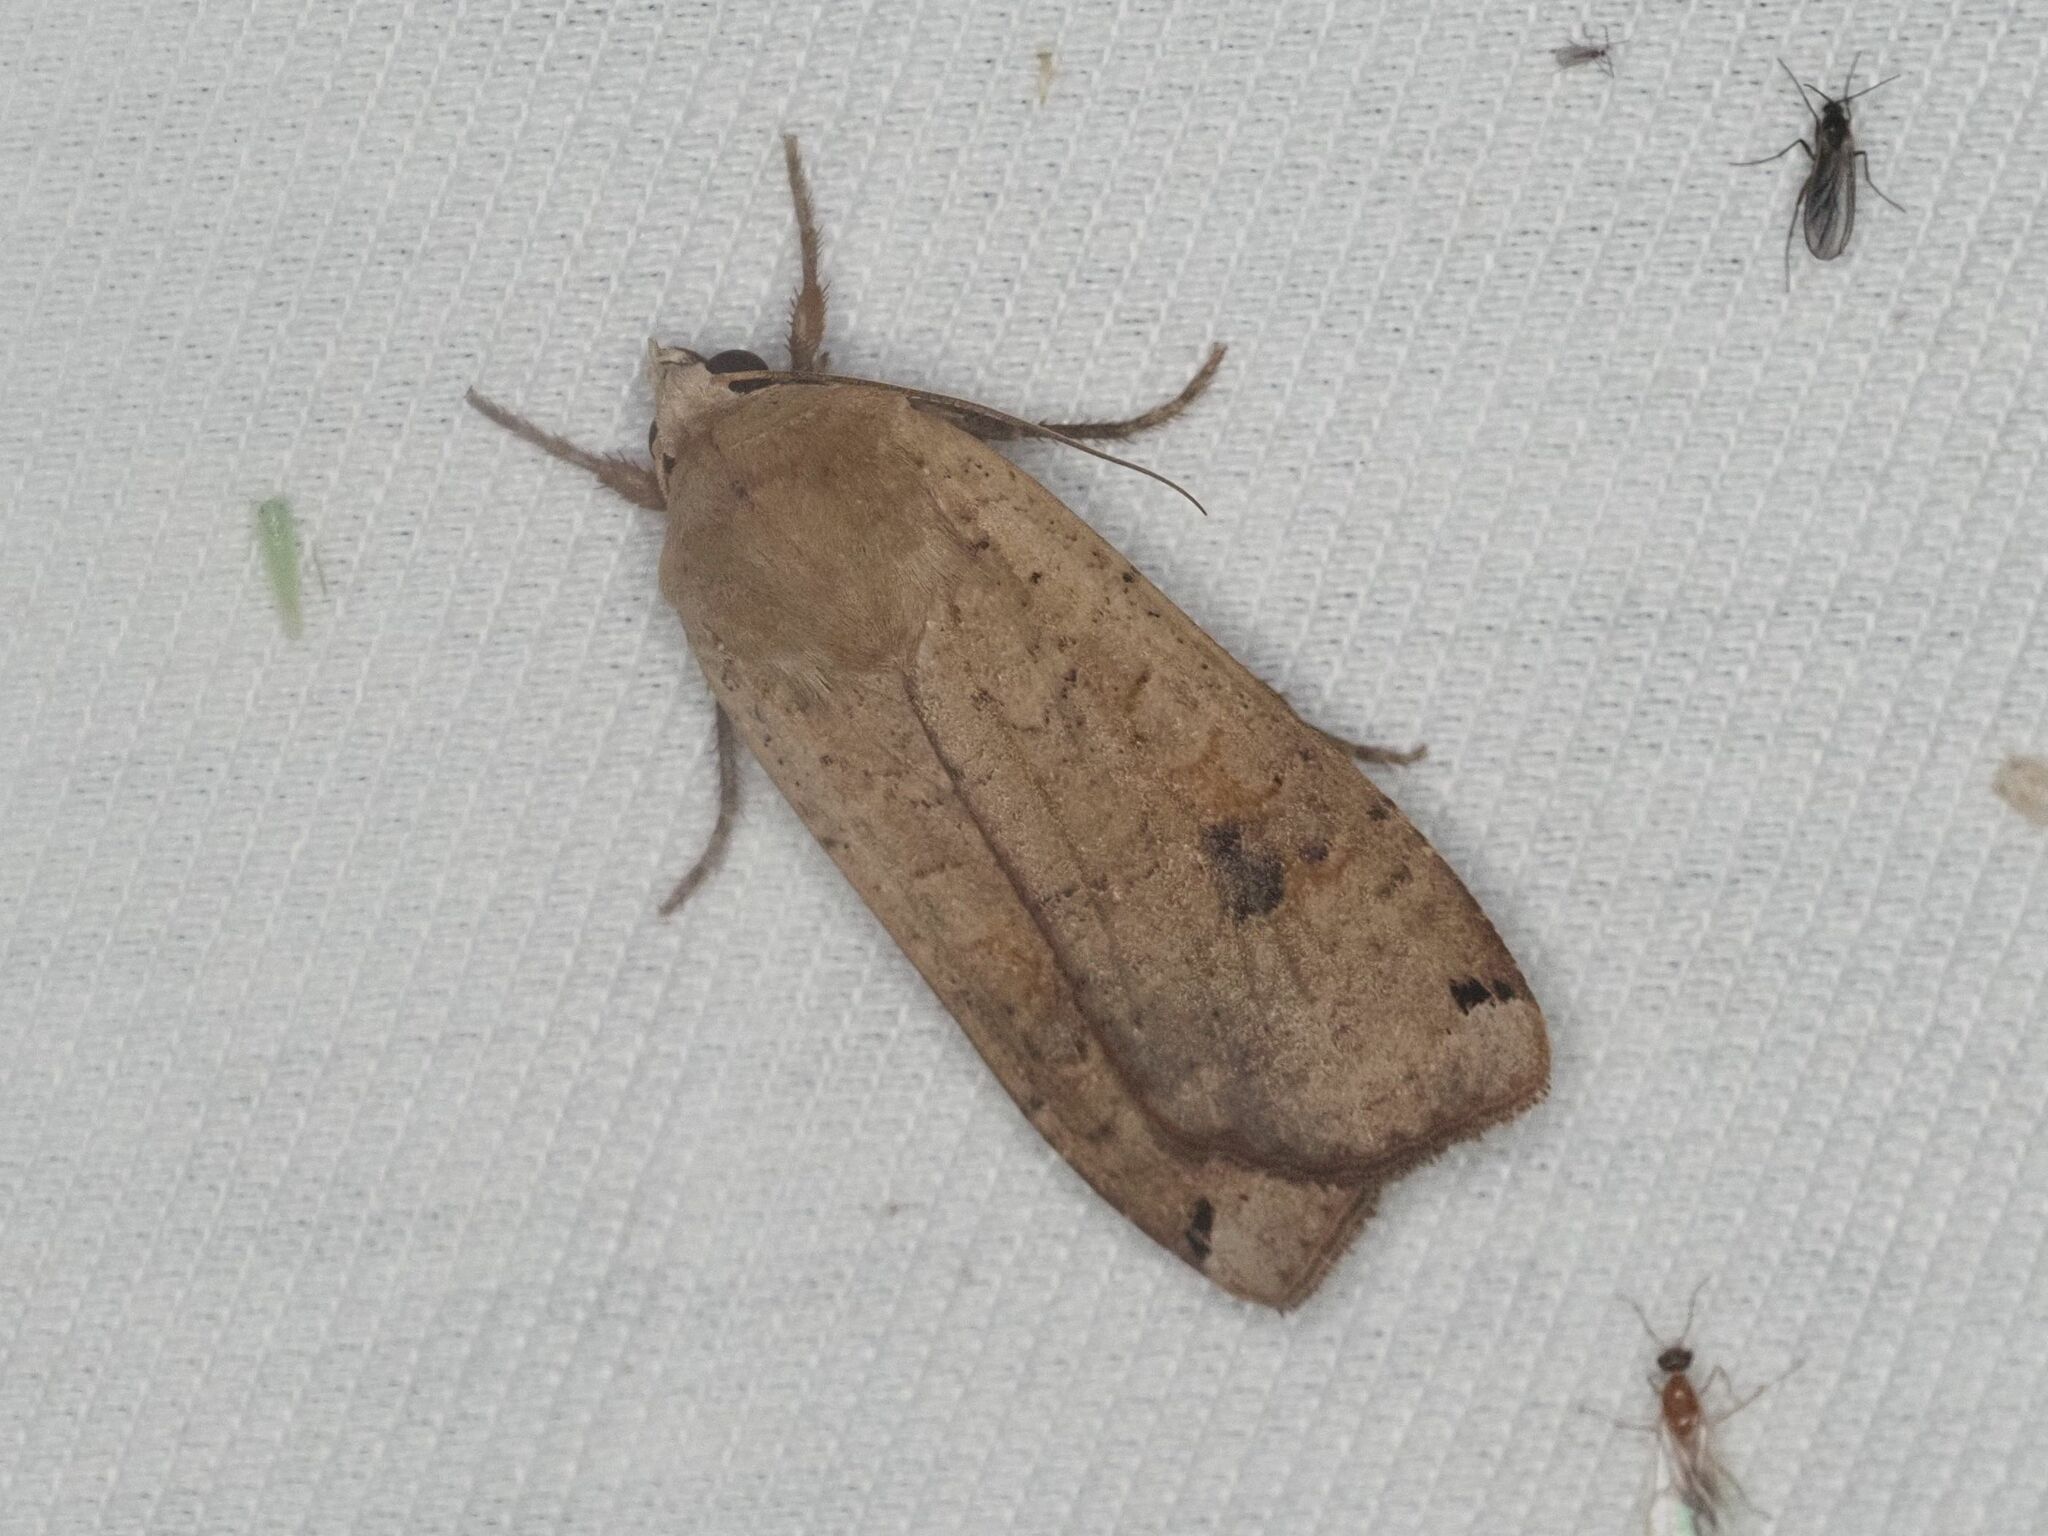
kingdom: Animalia
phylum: Arthropoda
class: Insecta
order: Lepidoptera
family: Noctuidae
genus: Noctua
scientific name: Noctua pronuba
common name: Large yellow underwing
